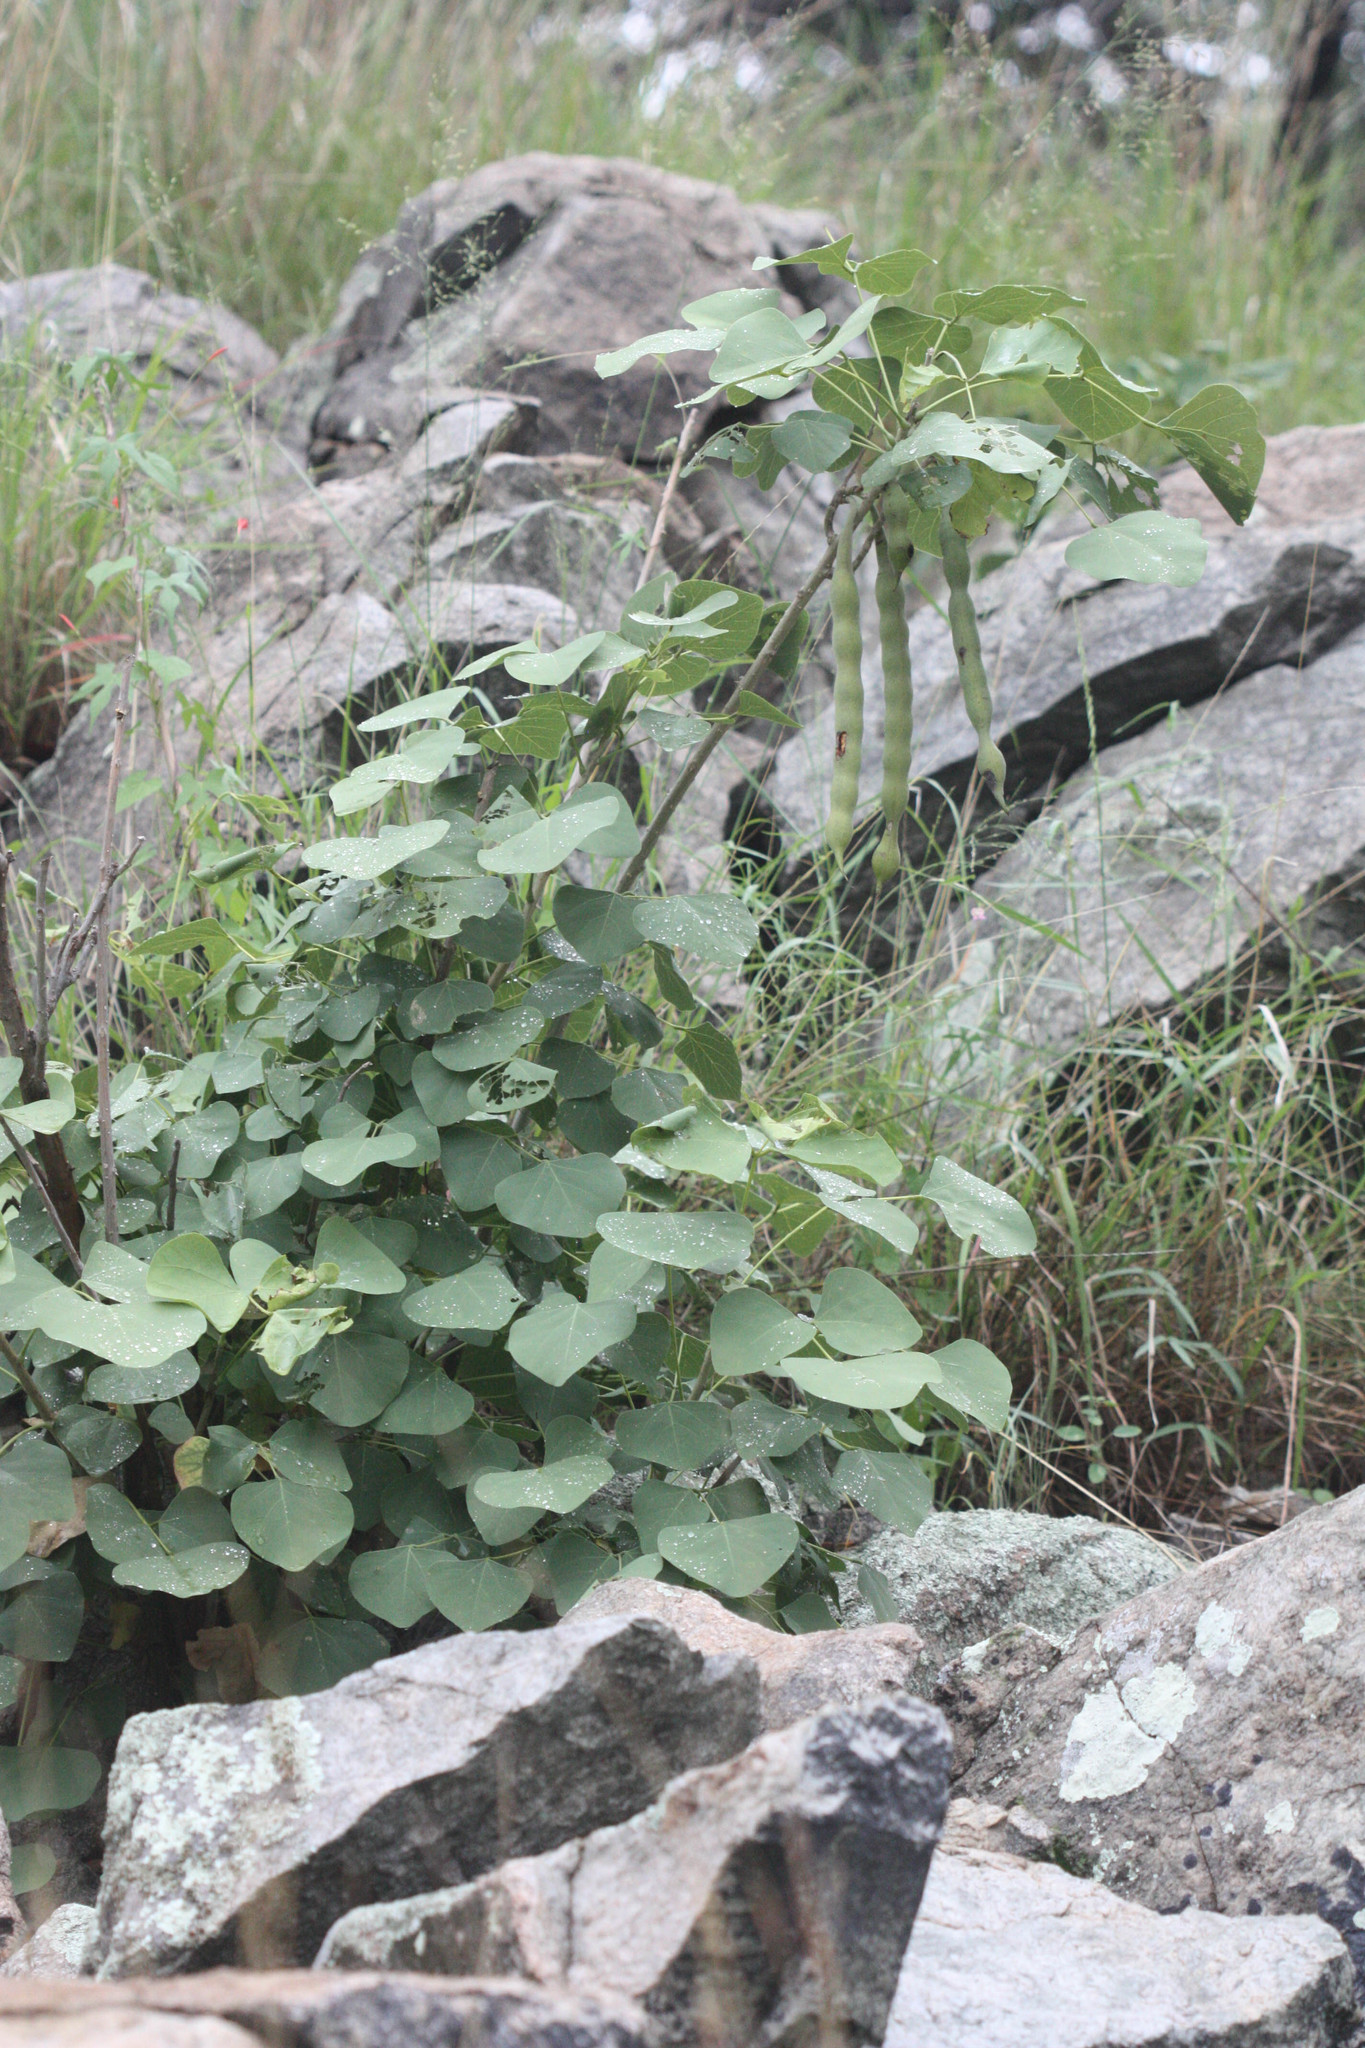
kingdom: Plantae
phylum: Tracheophyta
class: Magnoliopsida
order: Fabales
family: Fabaceae
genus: Erythrina
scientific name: Erythrina flabelliformis
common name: Chilicote
